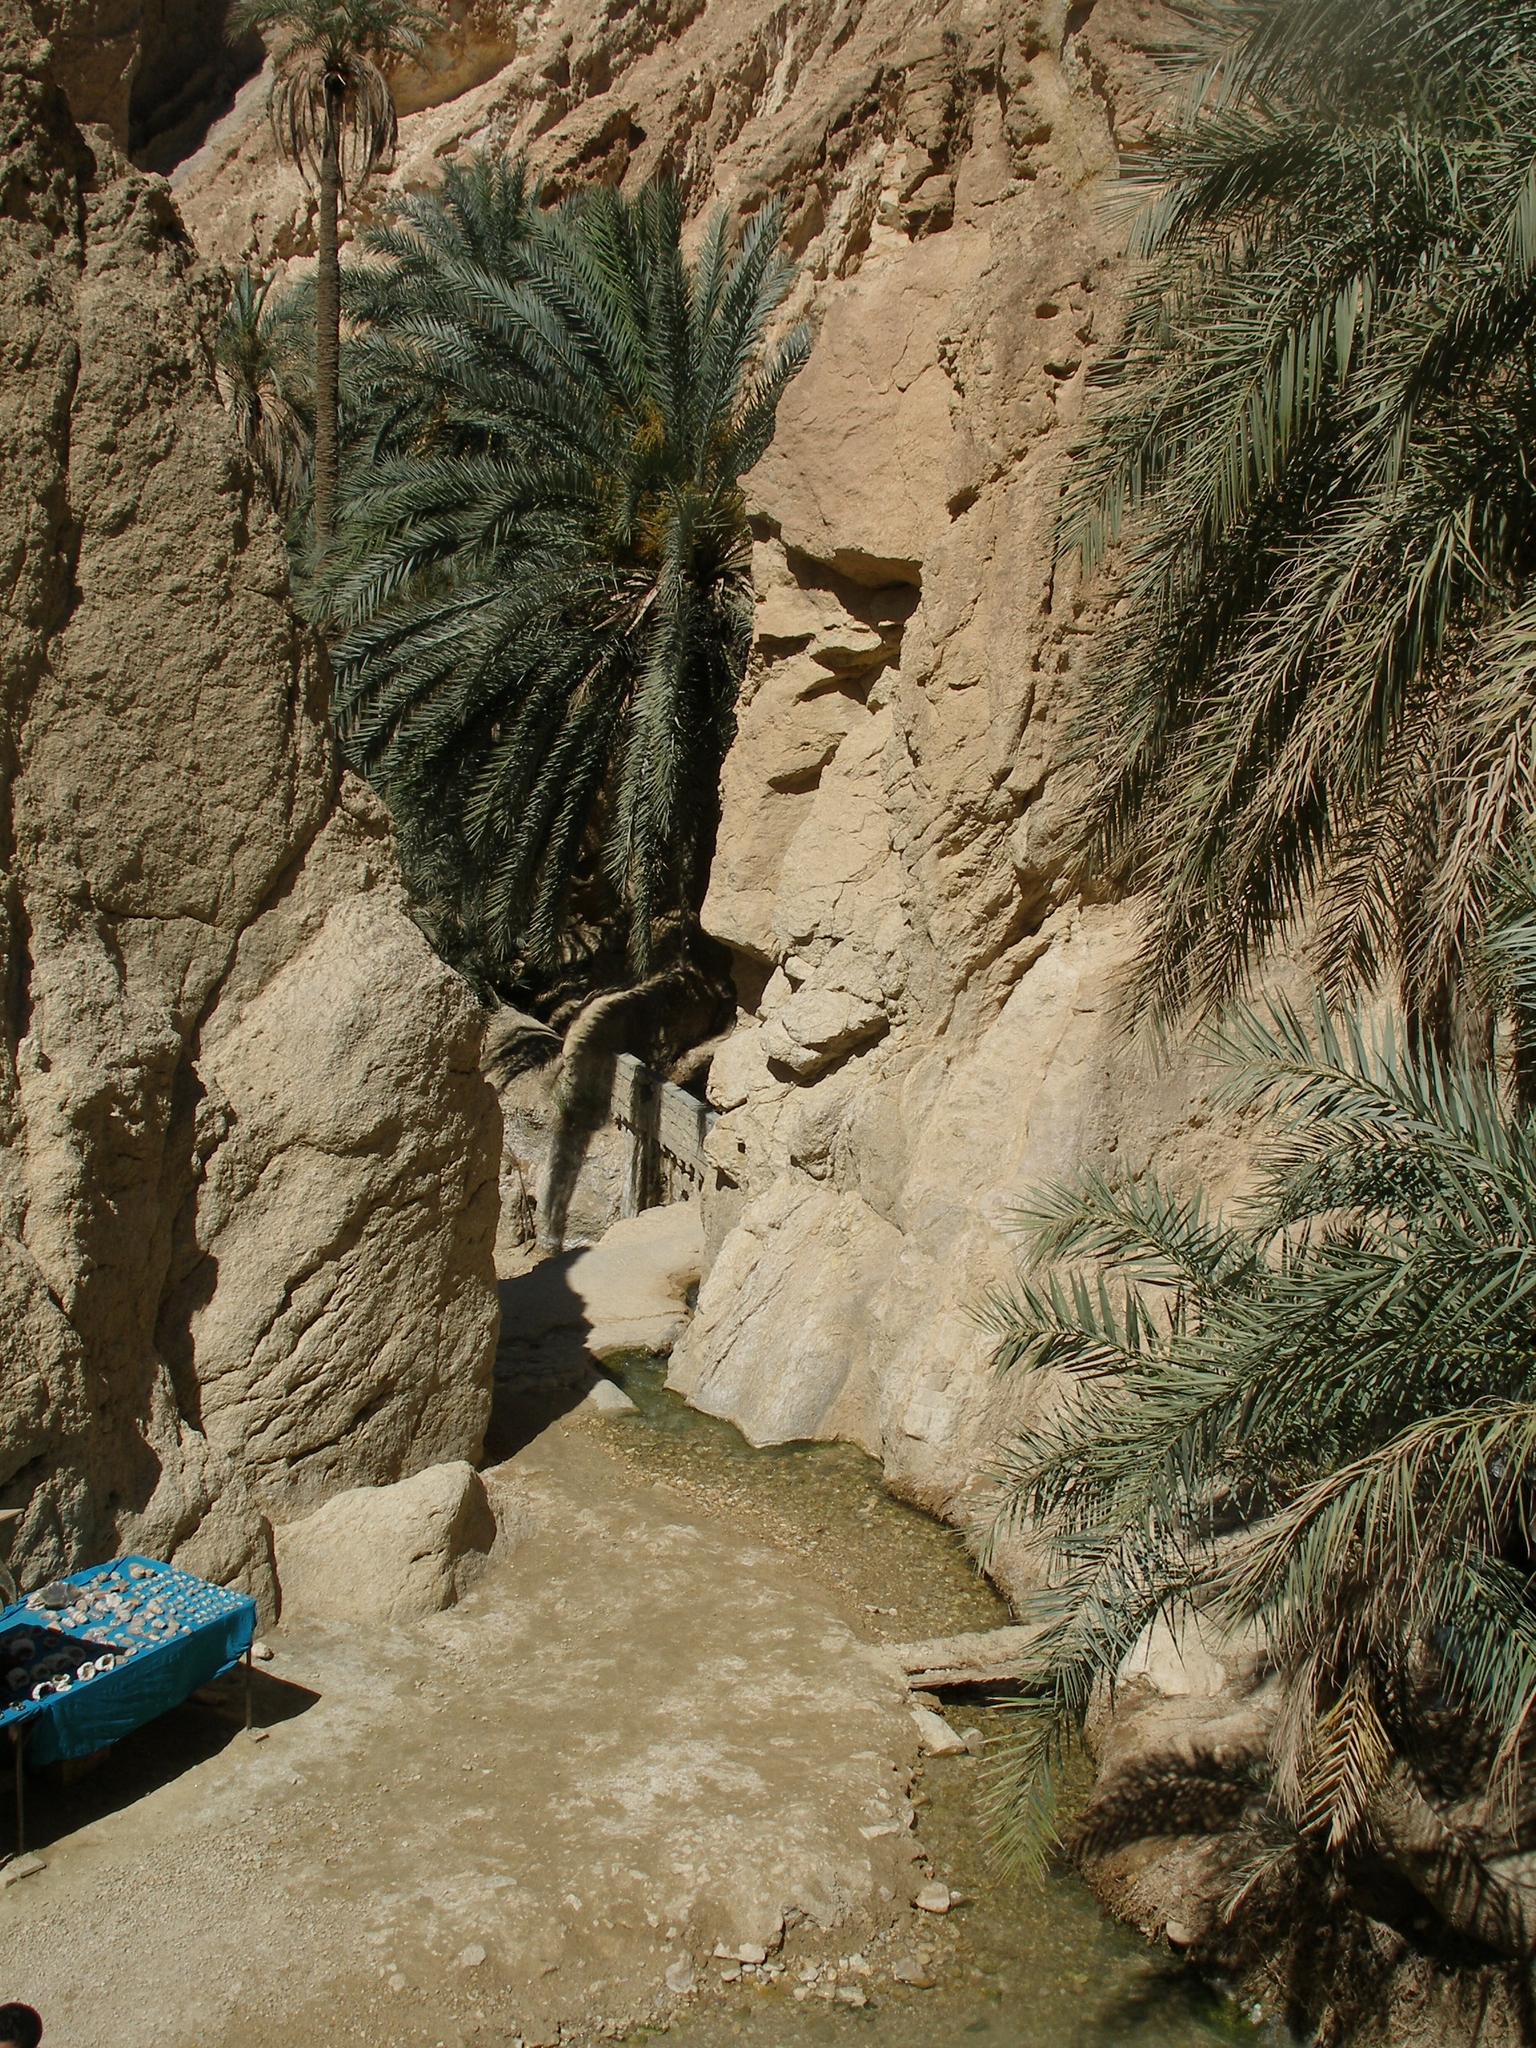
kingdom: Plantae
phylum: Tracheophyta
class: Liliopsida
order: Arecales
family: Arecaceae
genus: Phoenix
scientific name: Phoenix dactylifera
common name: Date palm
